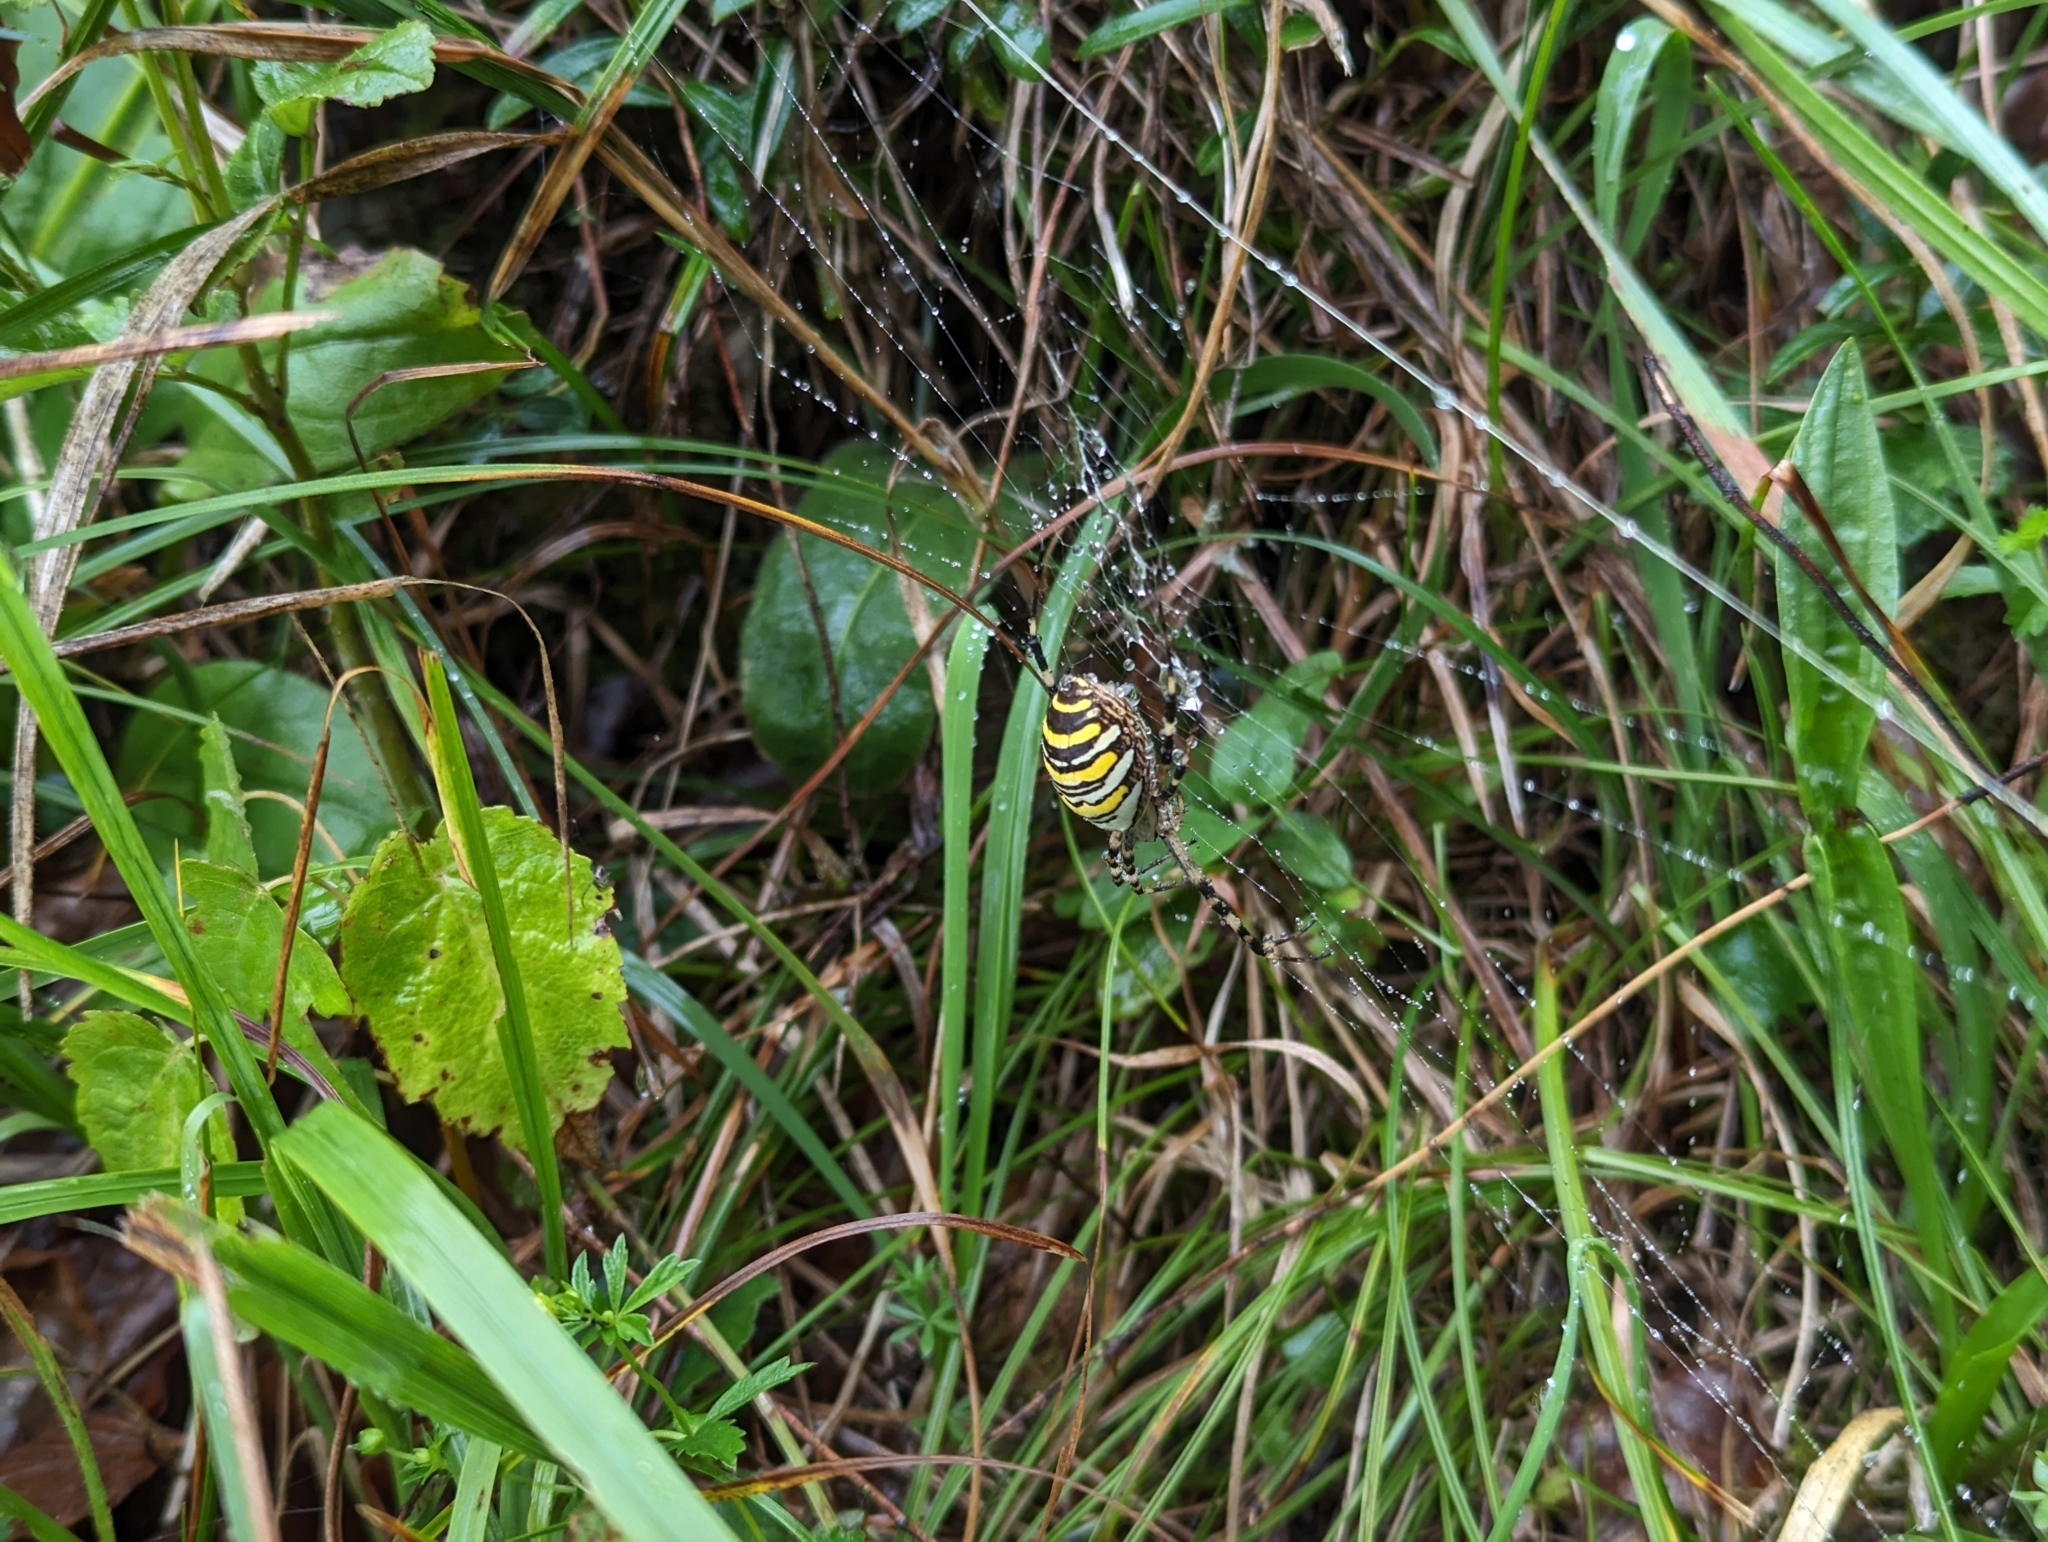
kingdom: Animalia
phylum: Arthropoda
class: Arachnida
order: Araneae
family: Araneidae
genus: Argiope
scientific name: Argiope bruennichi
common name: Wasp spider
